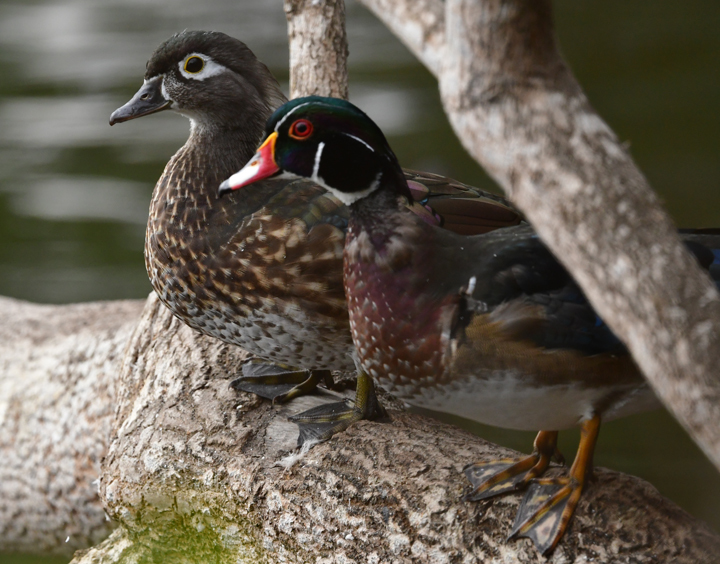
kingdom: Animalia
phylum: Chordata
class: Aves
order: Anseriformes
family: Anatidae
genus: Aix
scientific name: Aix sponsa
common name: Wood duck
